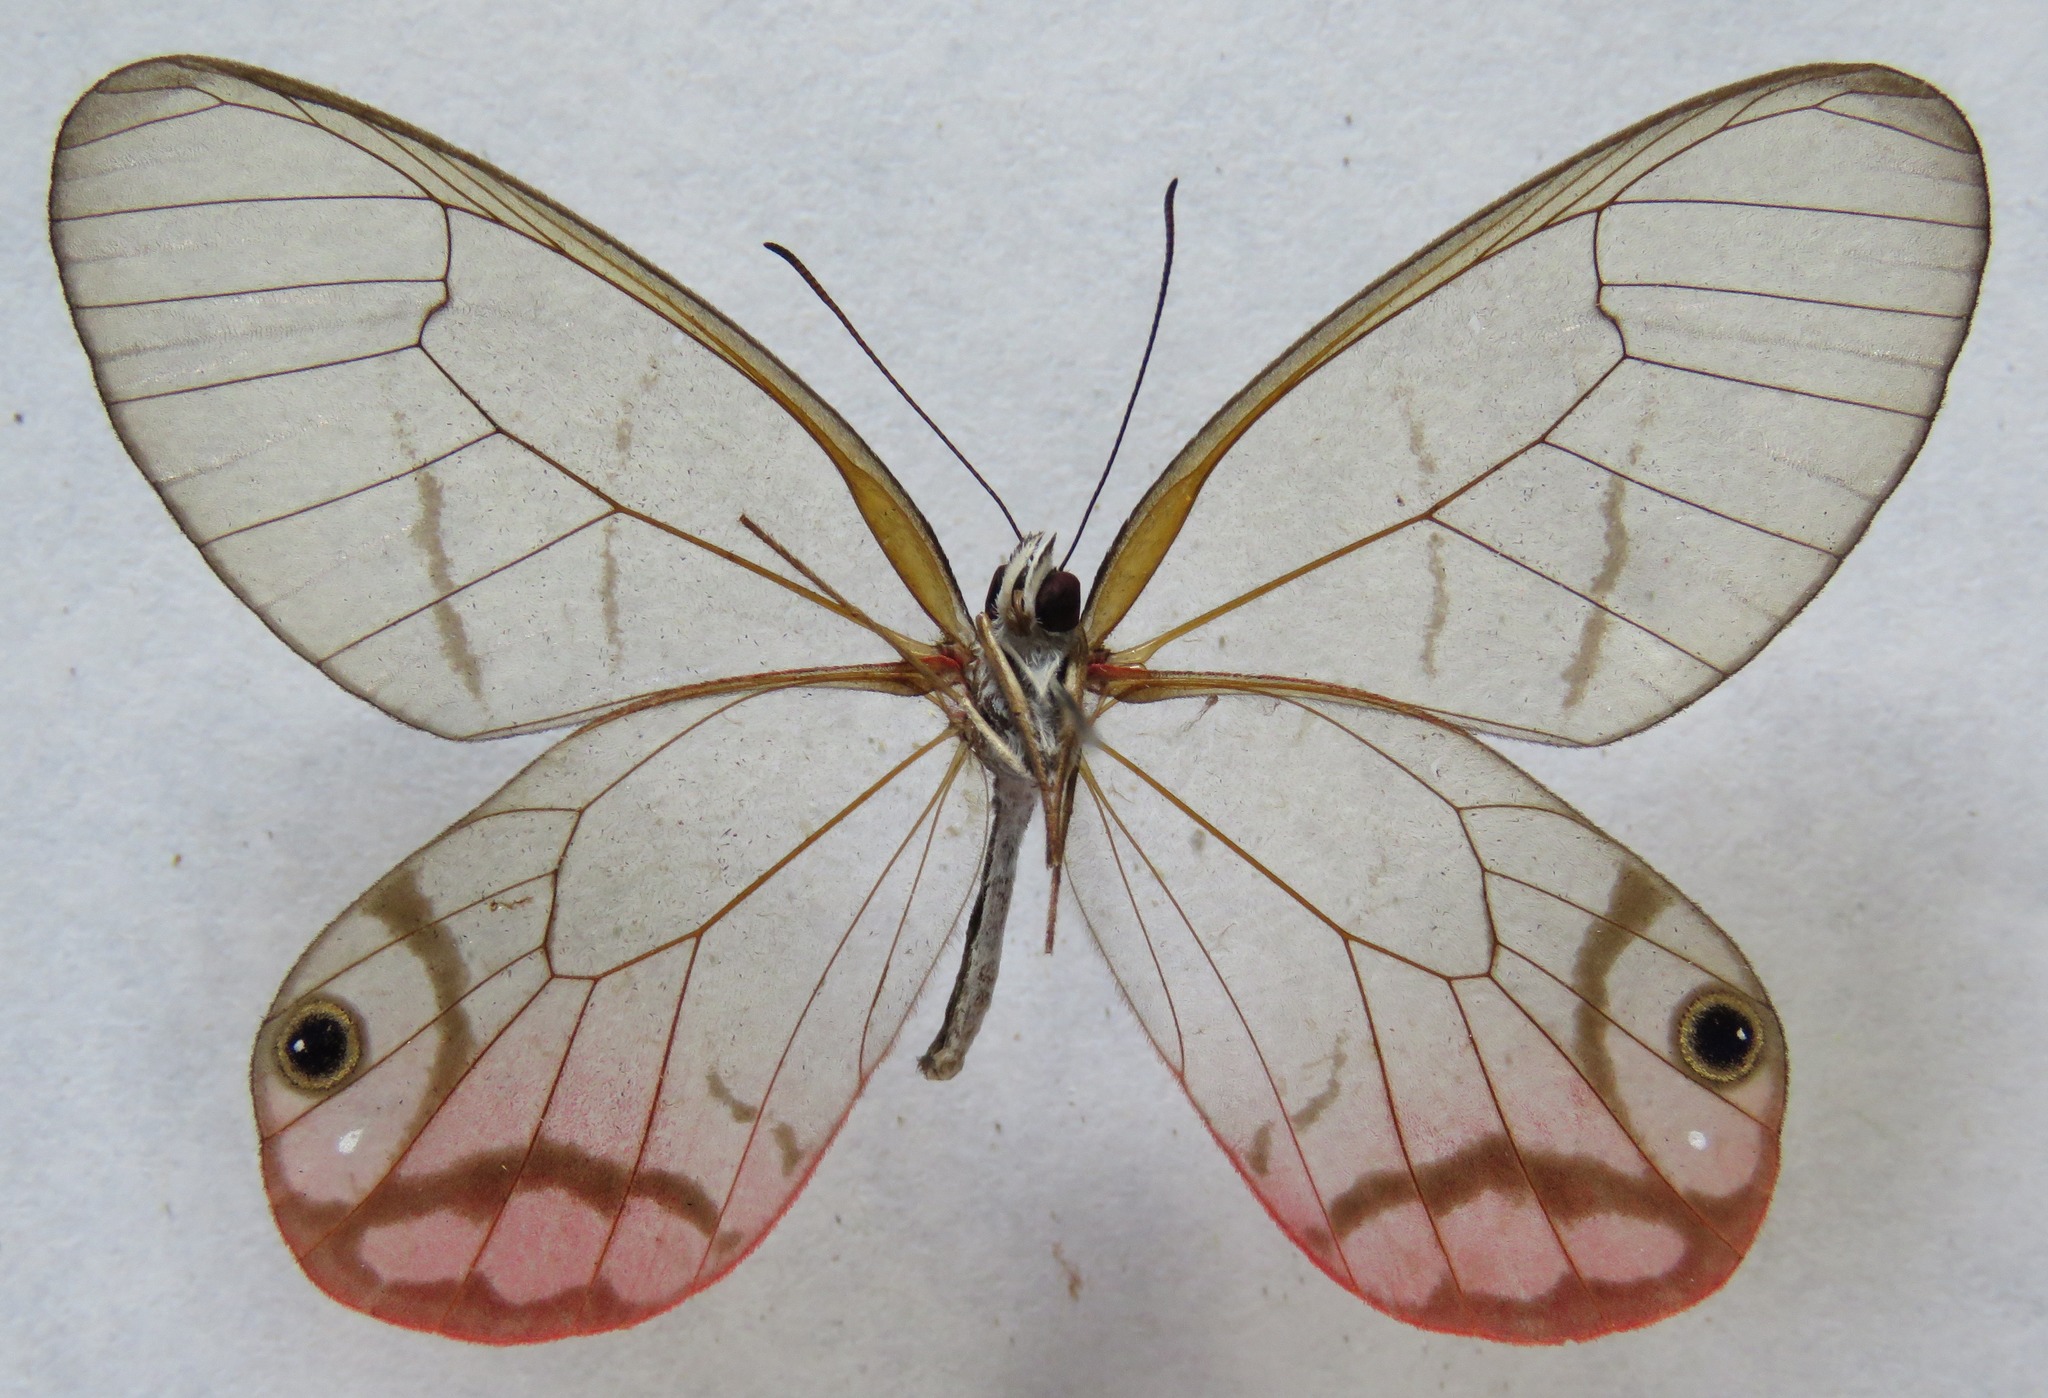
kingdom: Animalia
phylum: Arthropoda
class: Insecta
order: Lepidoptera
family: Nymphalidae
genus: Cithaerias
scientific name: Cithaerias pireta
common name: Rusted clearwing-satyr
